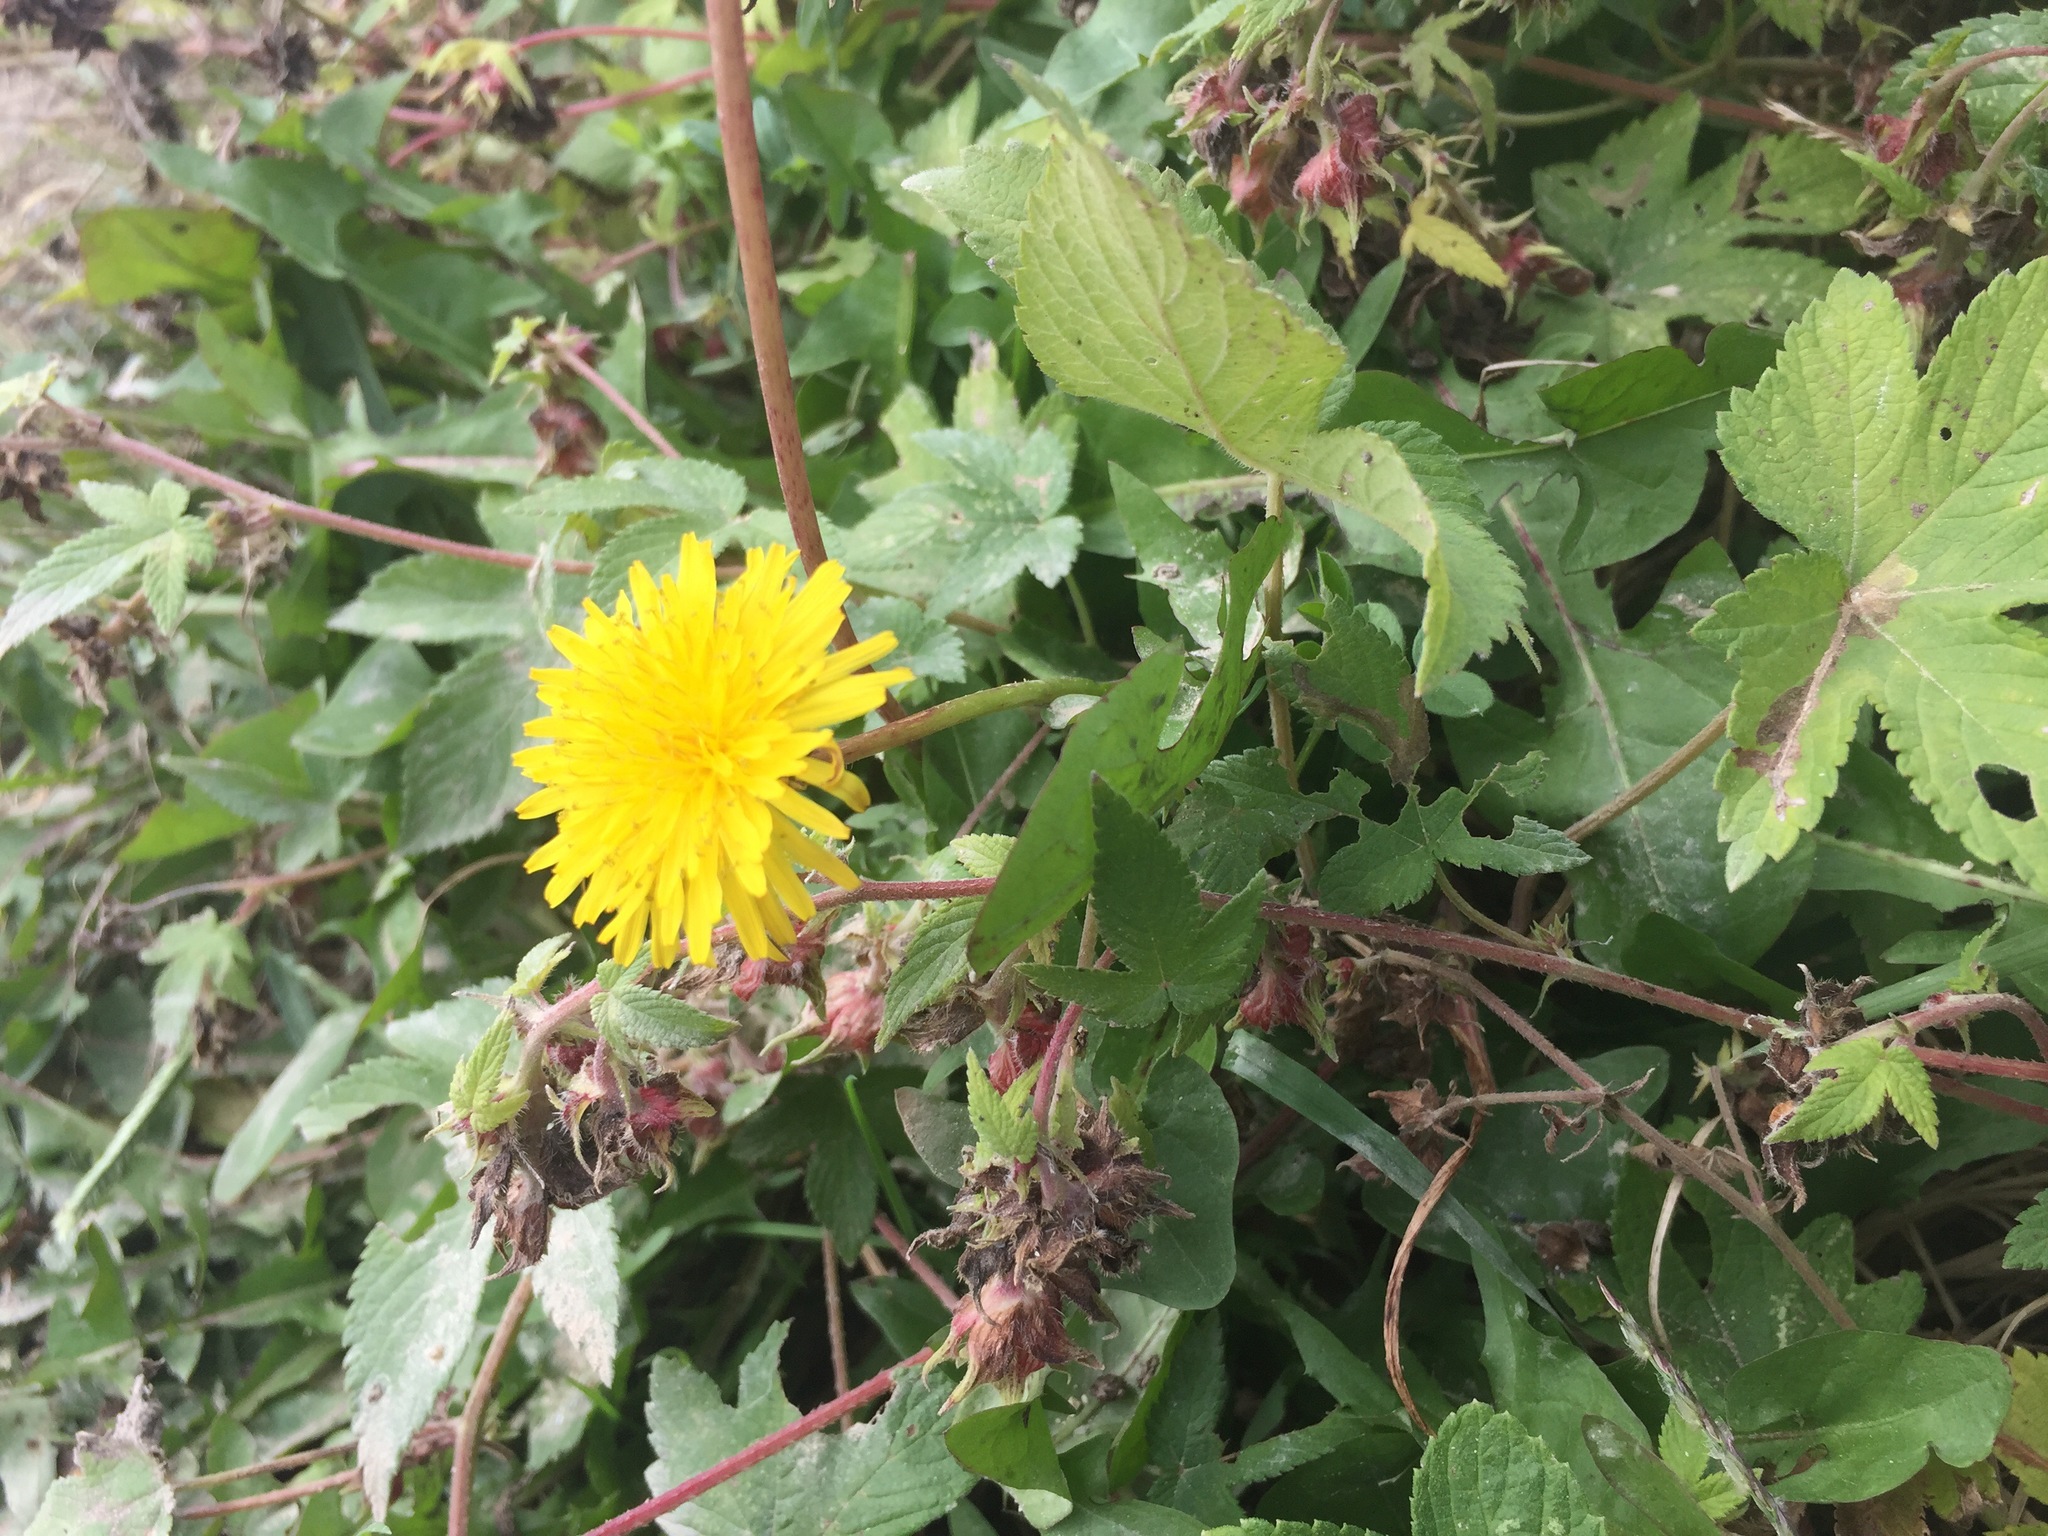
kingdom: Plantae
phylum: Tracheophyta
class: Magnoliopsida
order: Asterales
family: Asteraceae
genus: Taraxacum
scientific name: Taraxacum officinale
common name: Common dandelion
